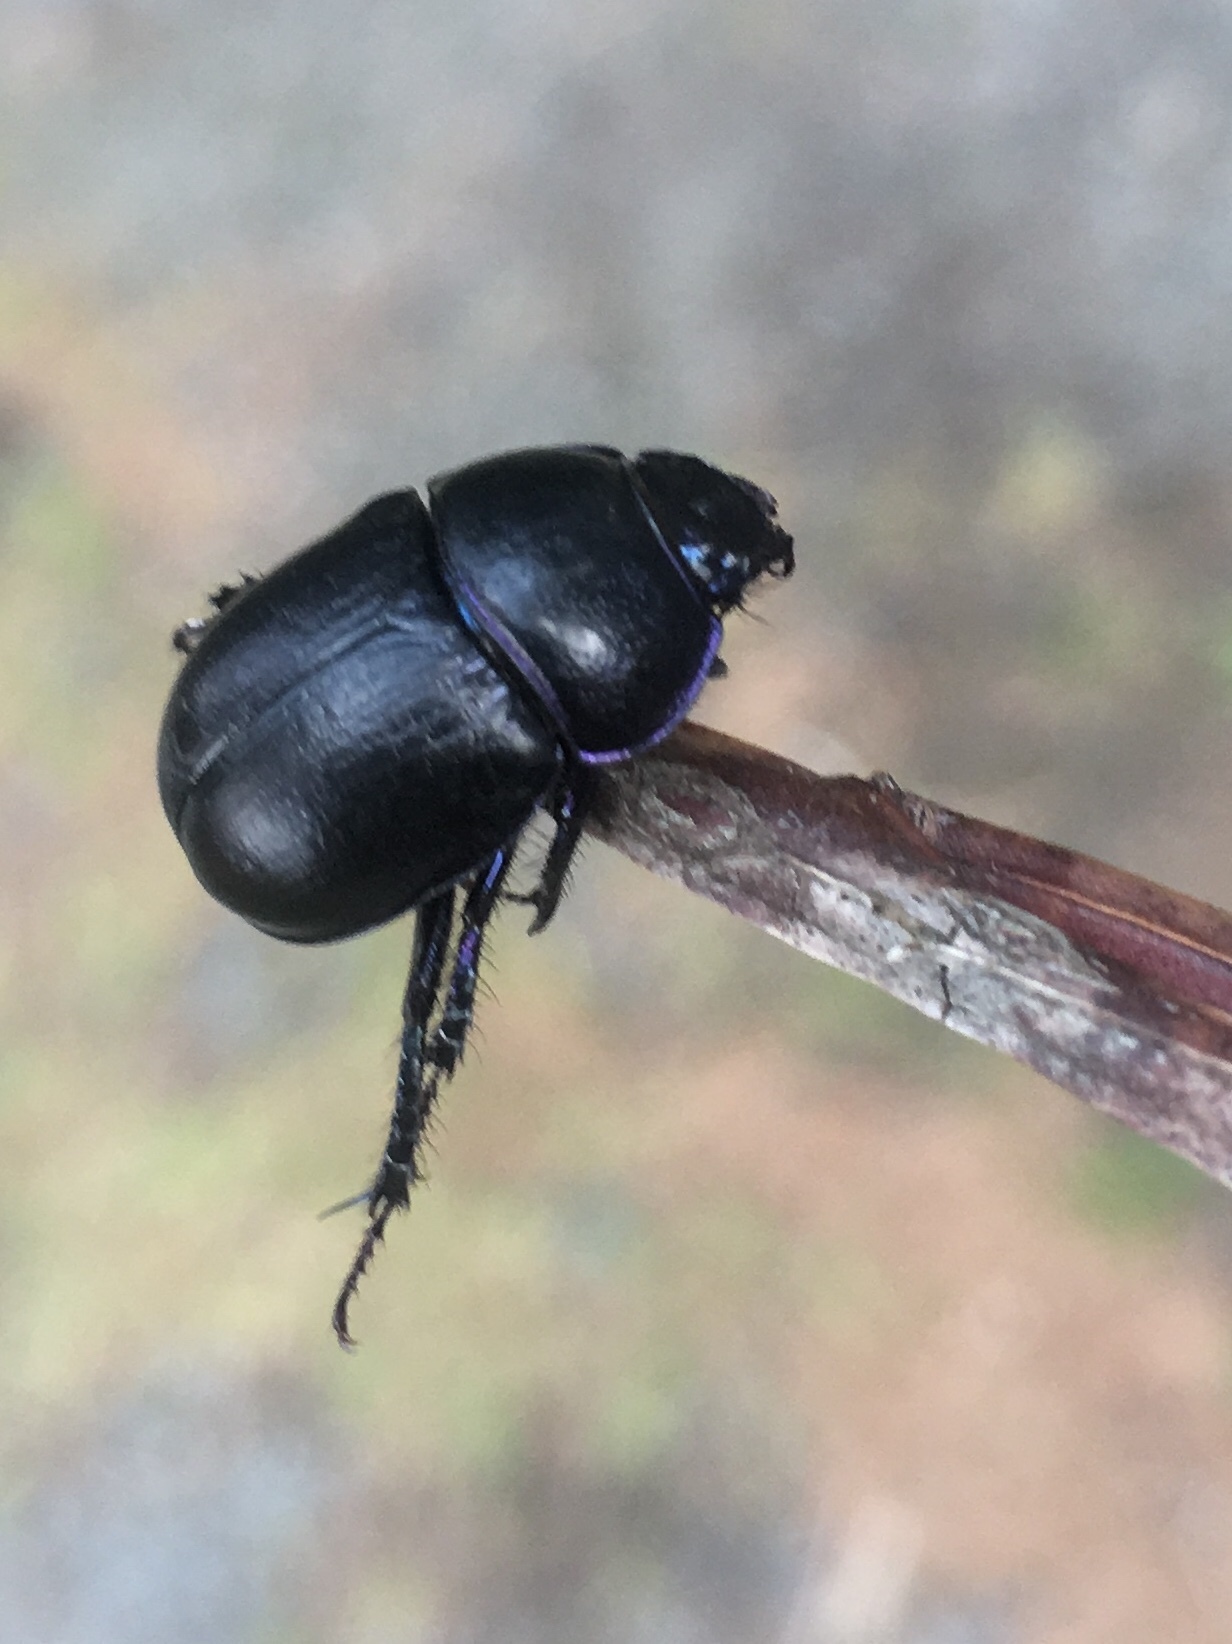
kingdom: Animalia
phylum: Arthropoda
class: Insecta
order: Coleoptera
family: Geotrupidae
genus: Anoplotrupes
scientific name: Anoplotrupes stercorosus
